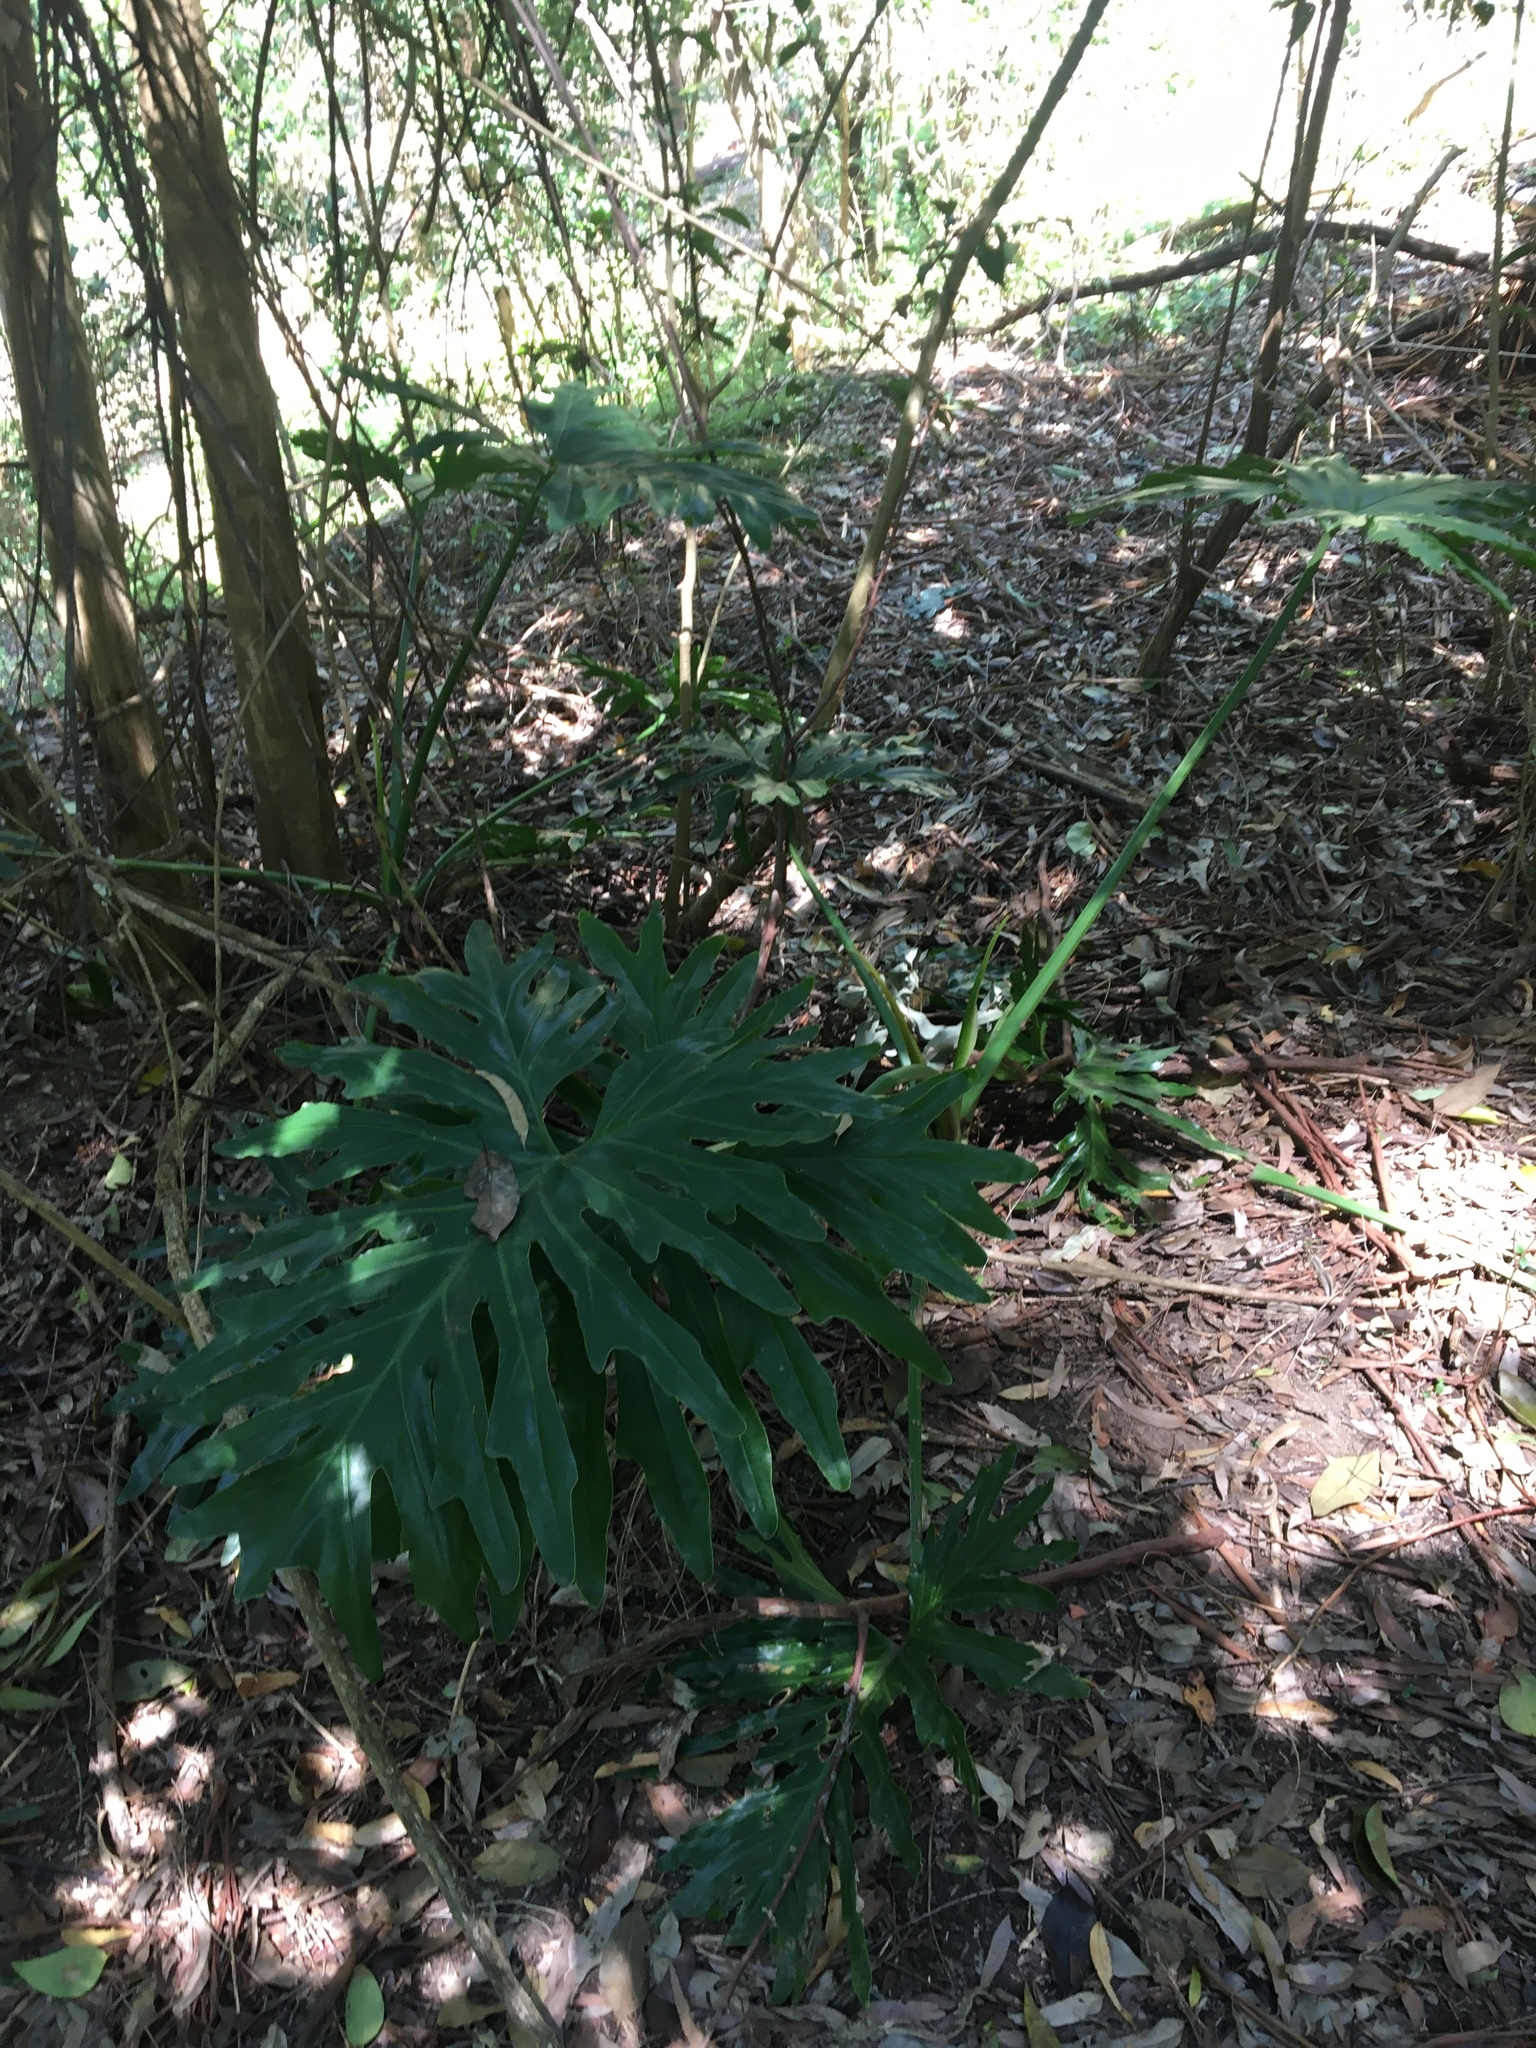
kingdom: Plantae
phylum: Tracheophyta
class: Liliopsida
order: Alismatales
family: Araceae
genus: Thaumatophyllum
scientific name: Thaumatophyllum bipinnatifidum
